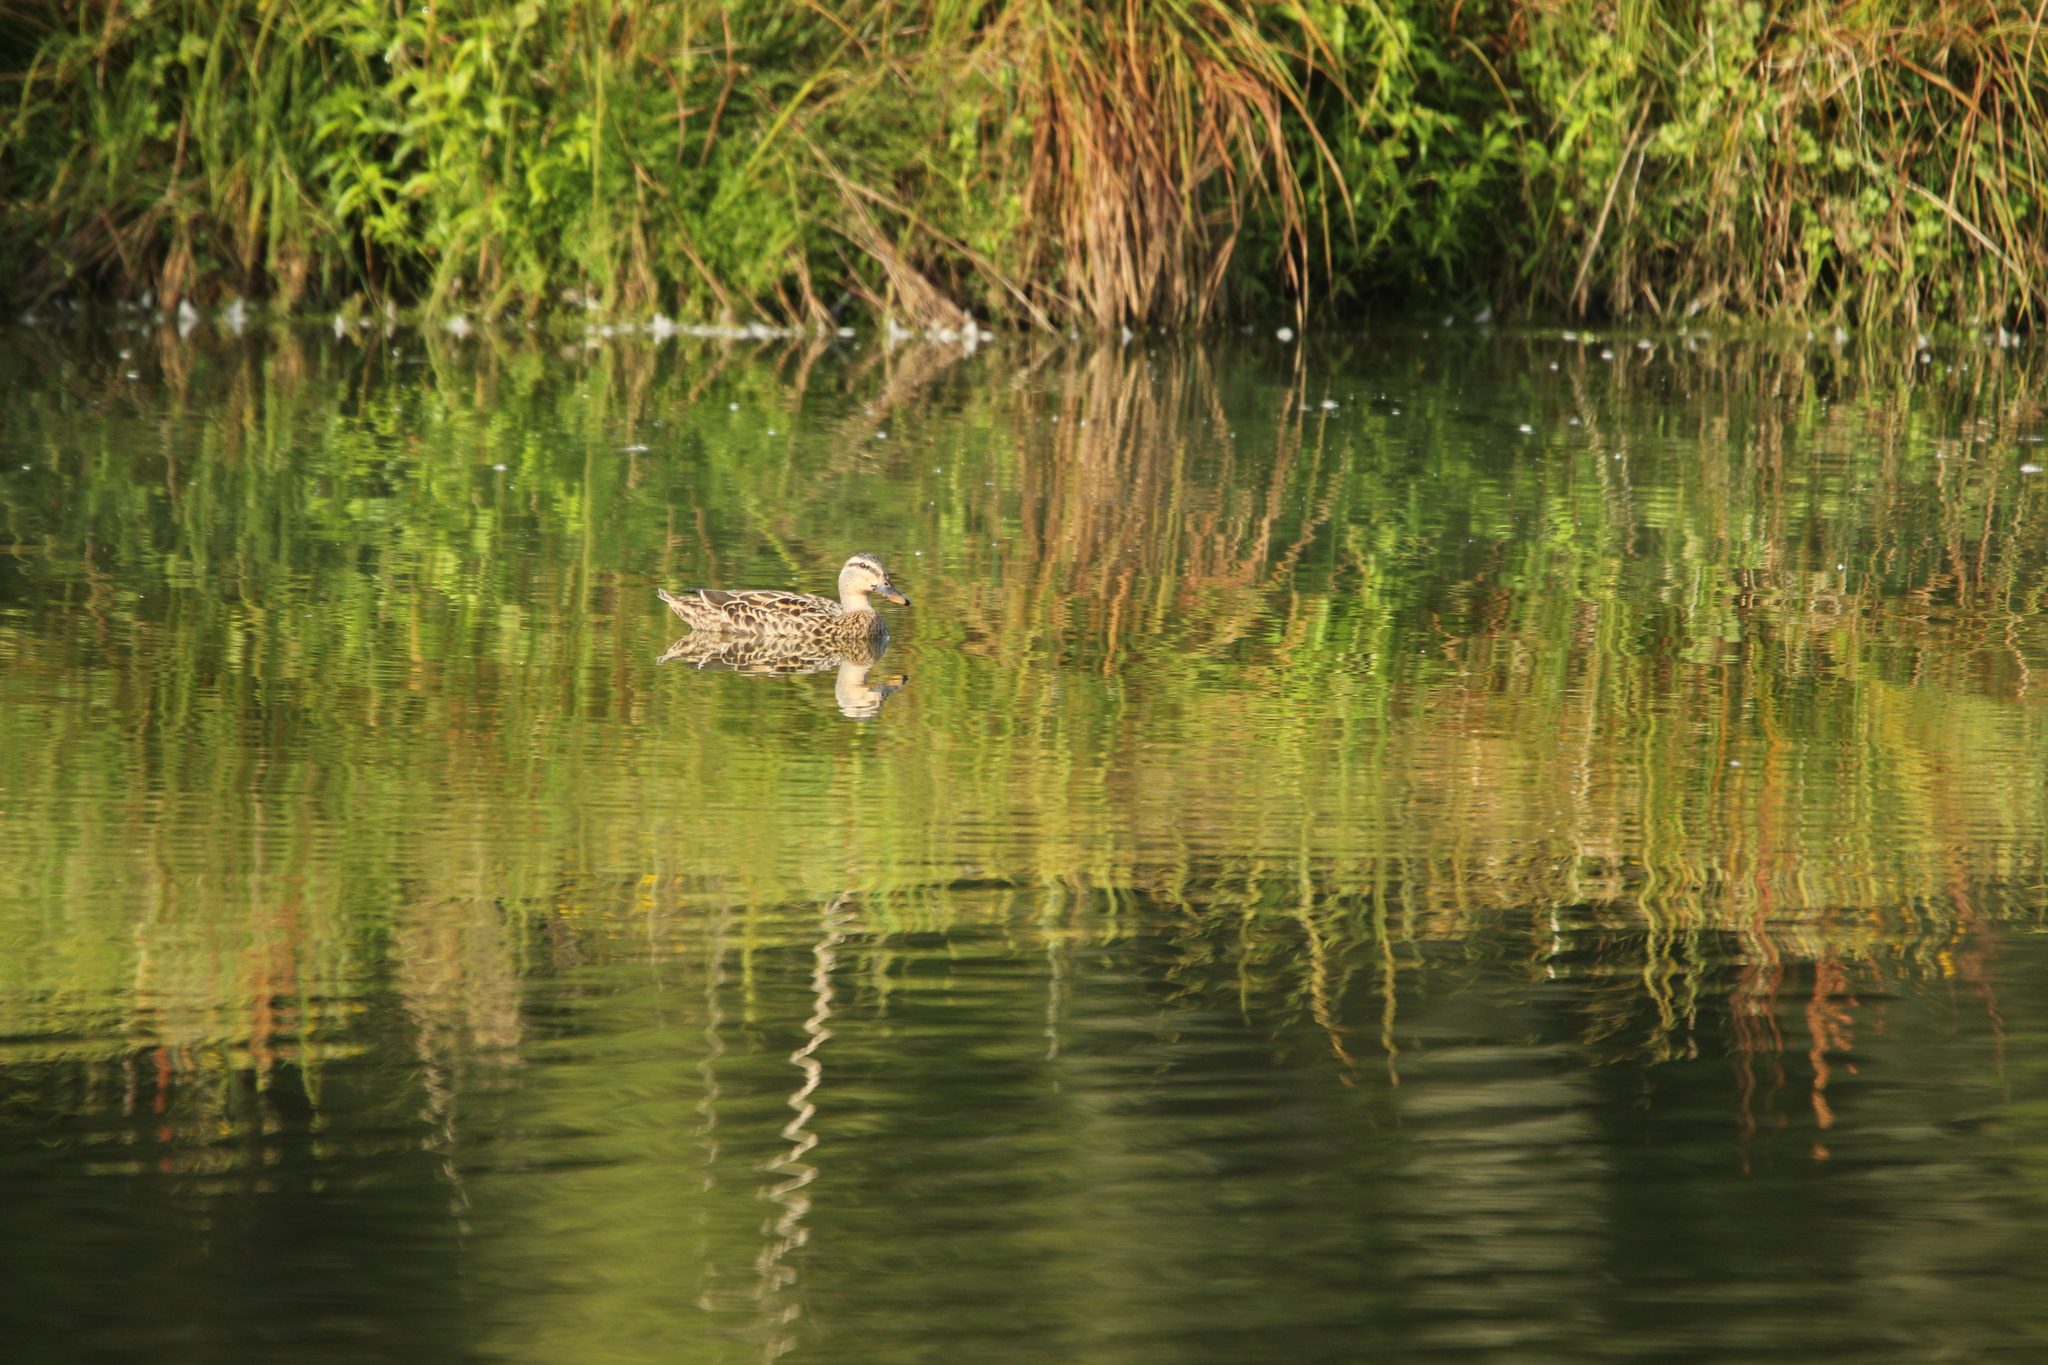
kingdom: Animalia
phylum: Chordata
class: Aves
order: Anseriformes
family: Anatidae
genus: Anas
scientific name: Anas
